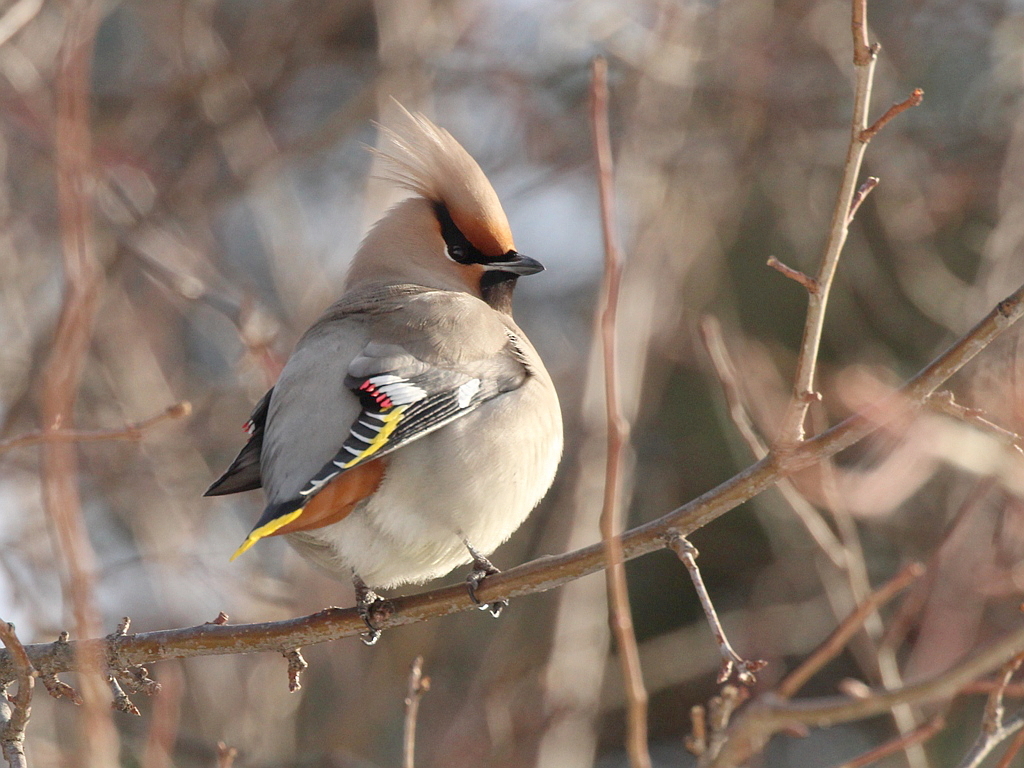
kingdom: Animalia
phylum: Chordata
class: Aves
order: Passeriformes
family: Bombycillidae
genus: Bombycilla
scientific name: Bombycilla garrulus
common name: Bohemian waxwing
